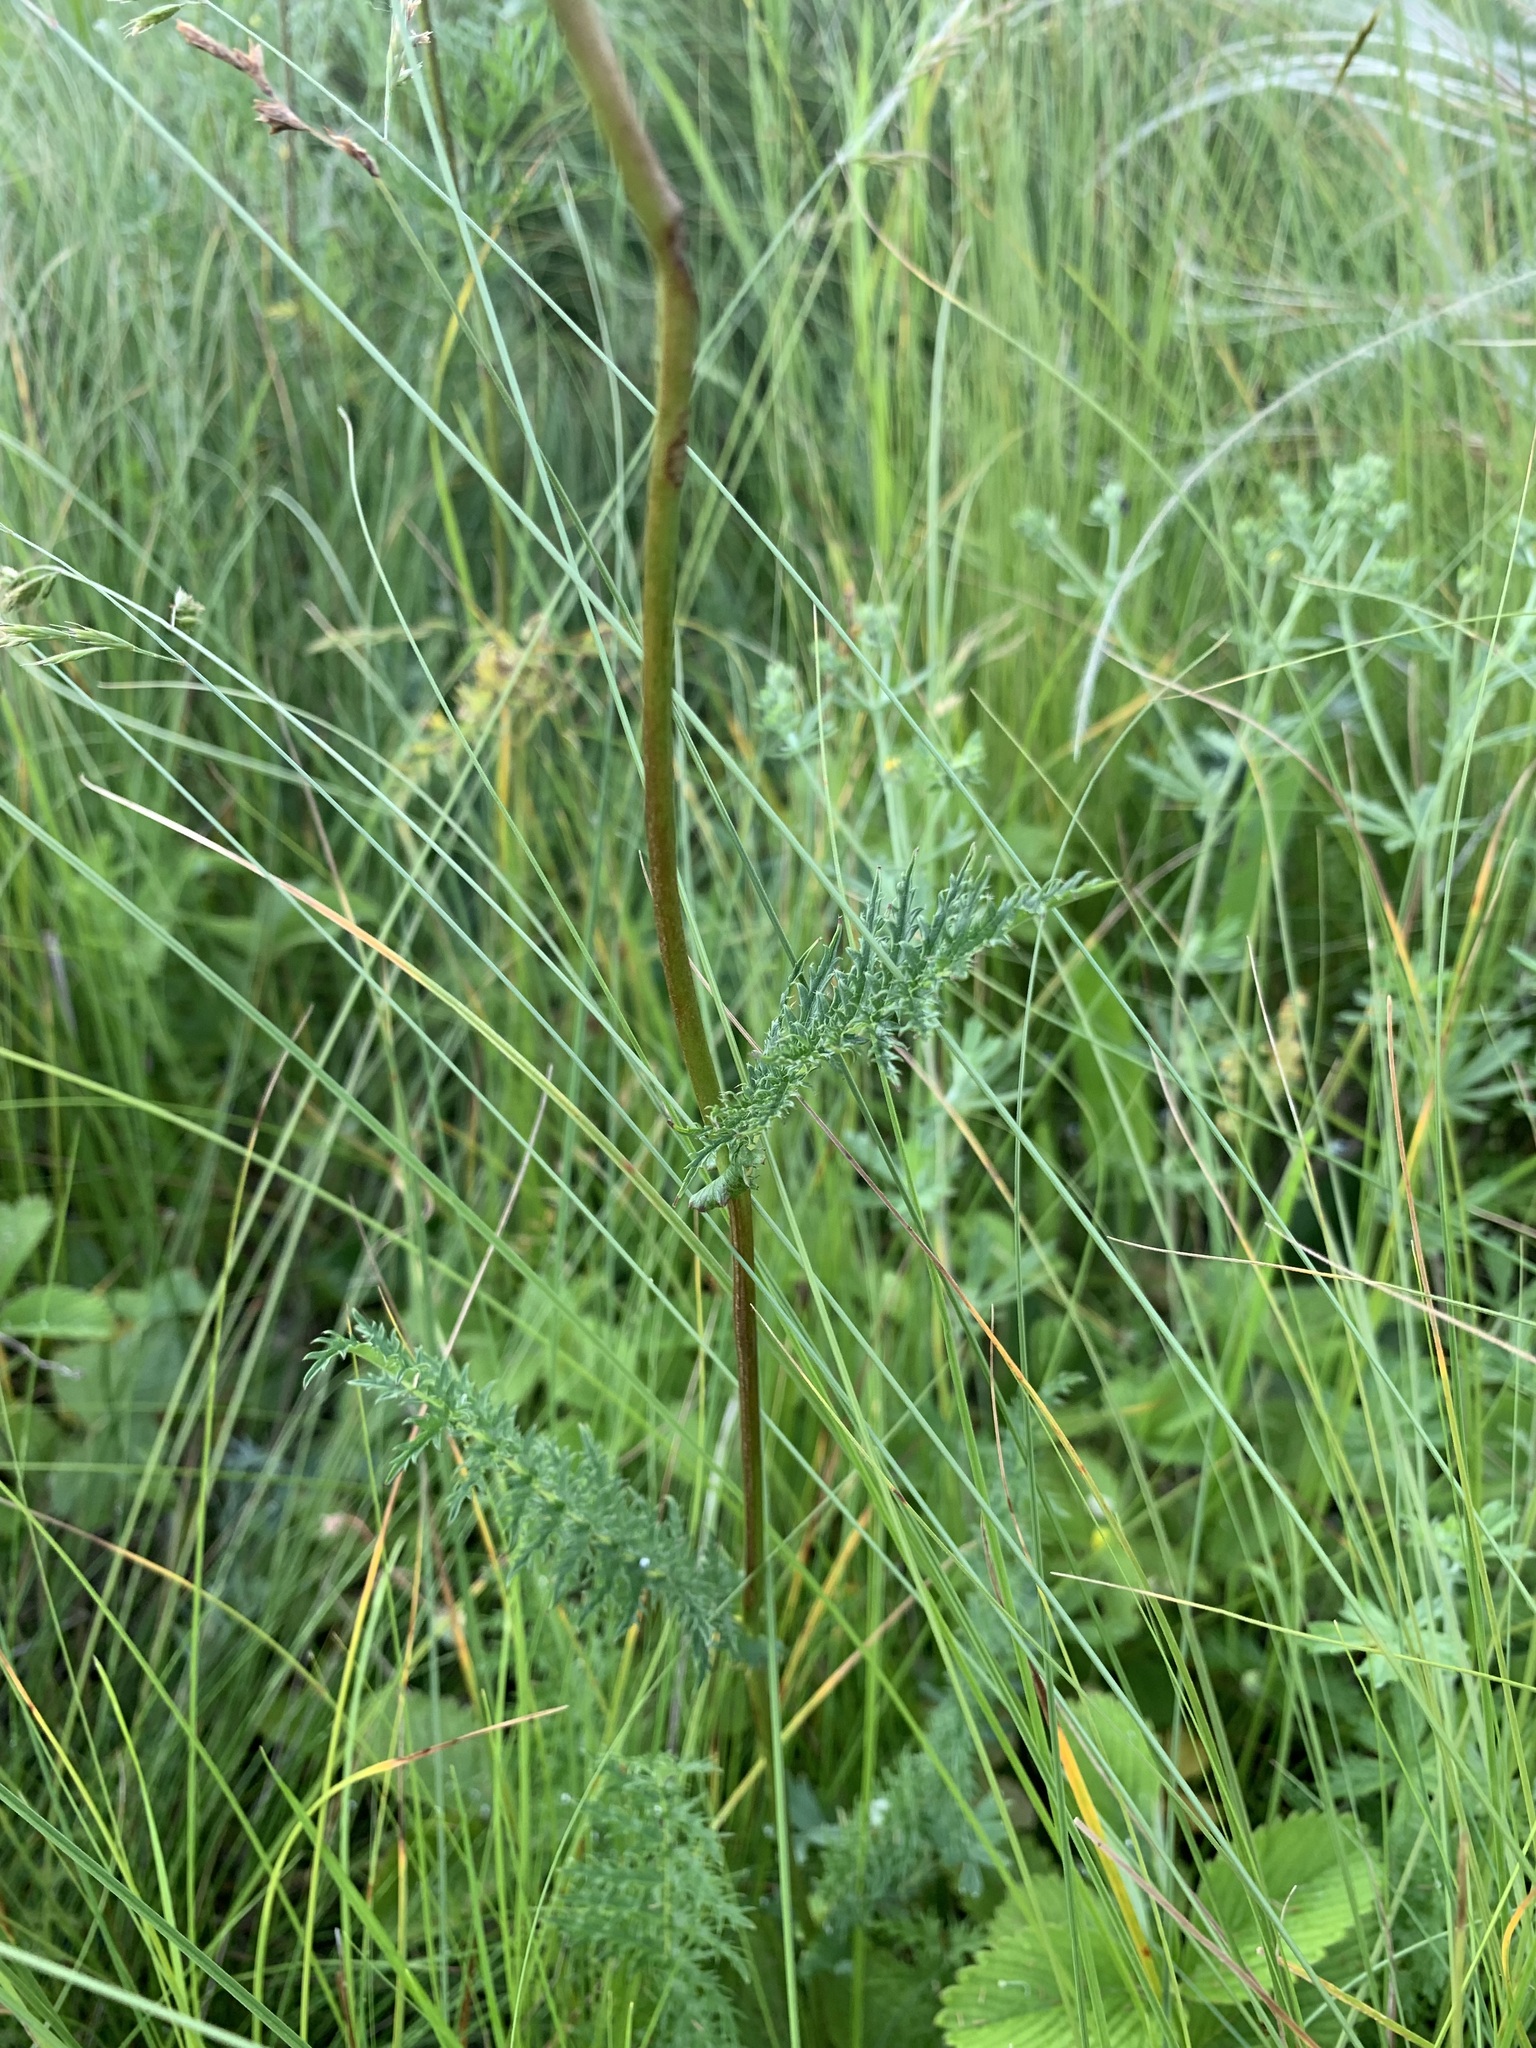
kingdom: Plantae
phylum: Tracheophyta
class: Magnoliopsida
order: Rosales
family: Rosaceae
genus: Filipendula
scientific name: Filipendula vulgaris
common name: Dropwort
